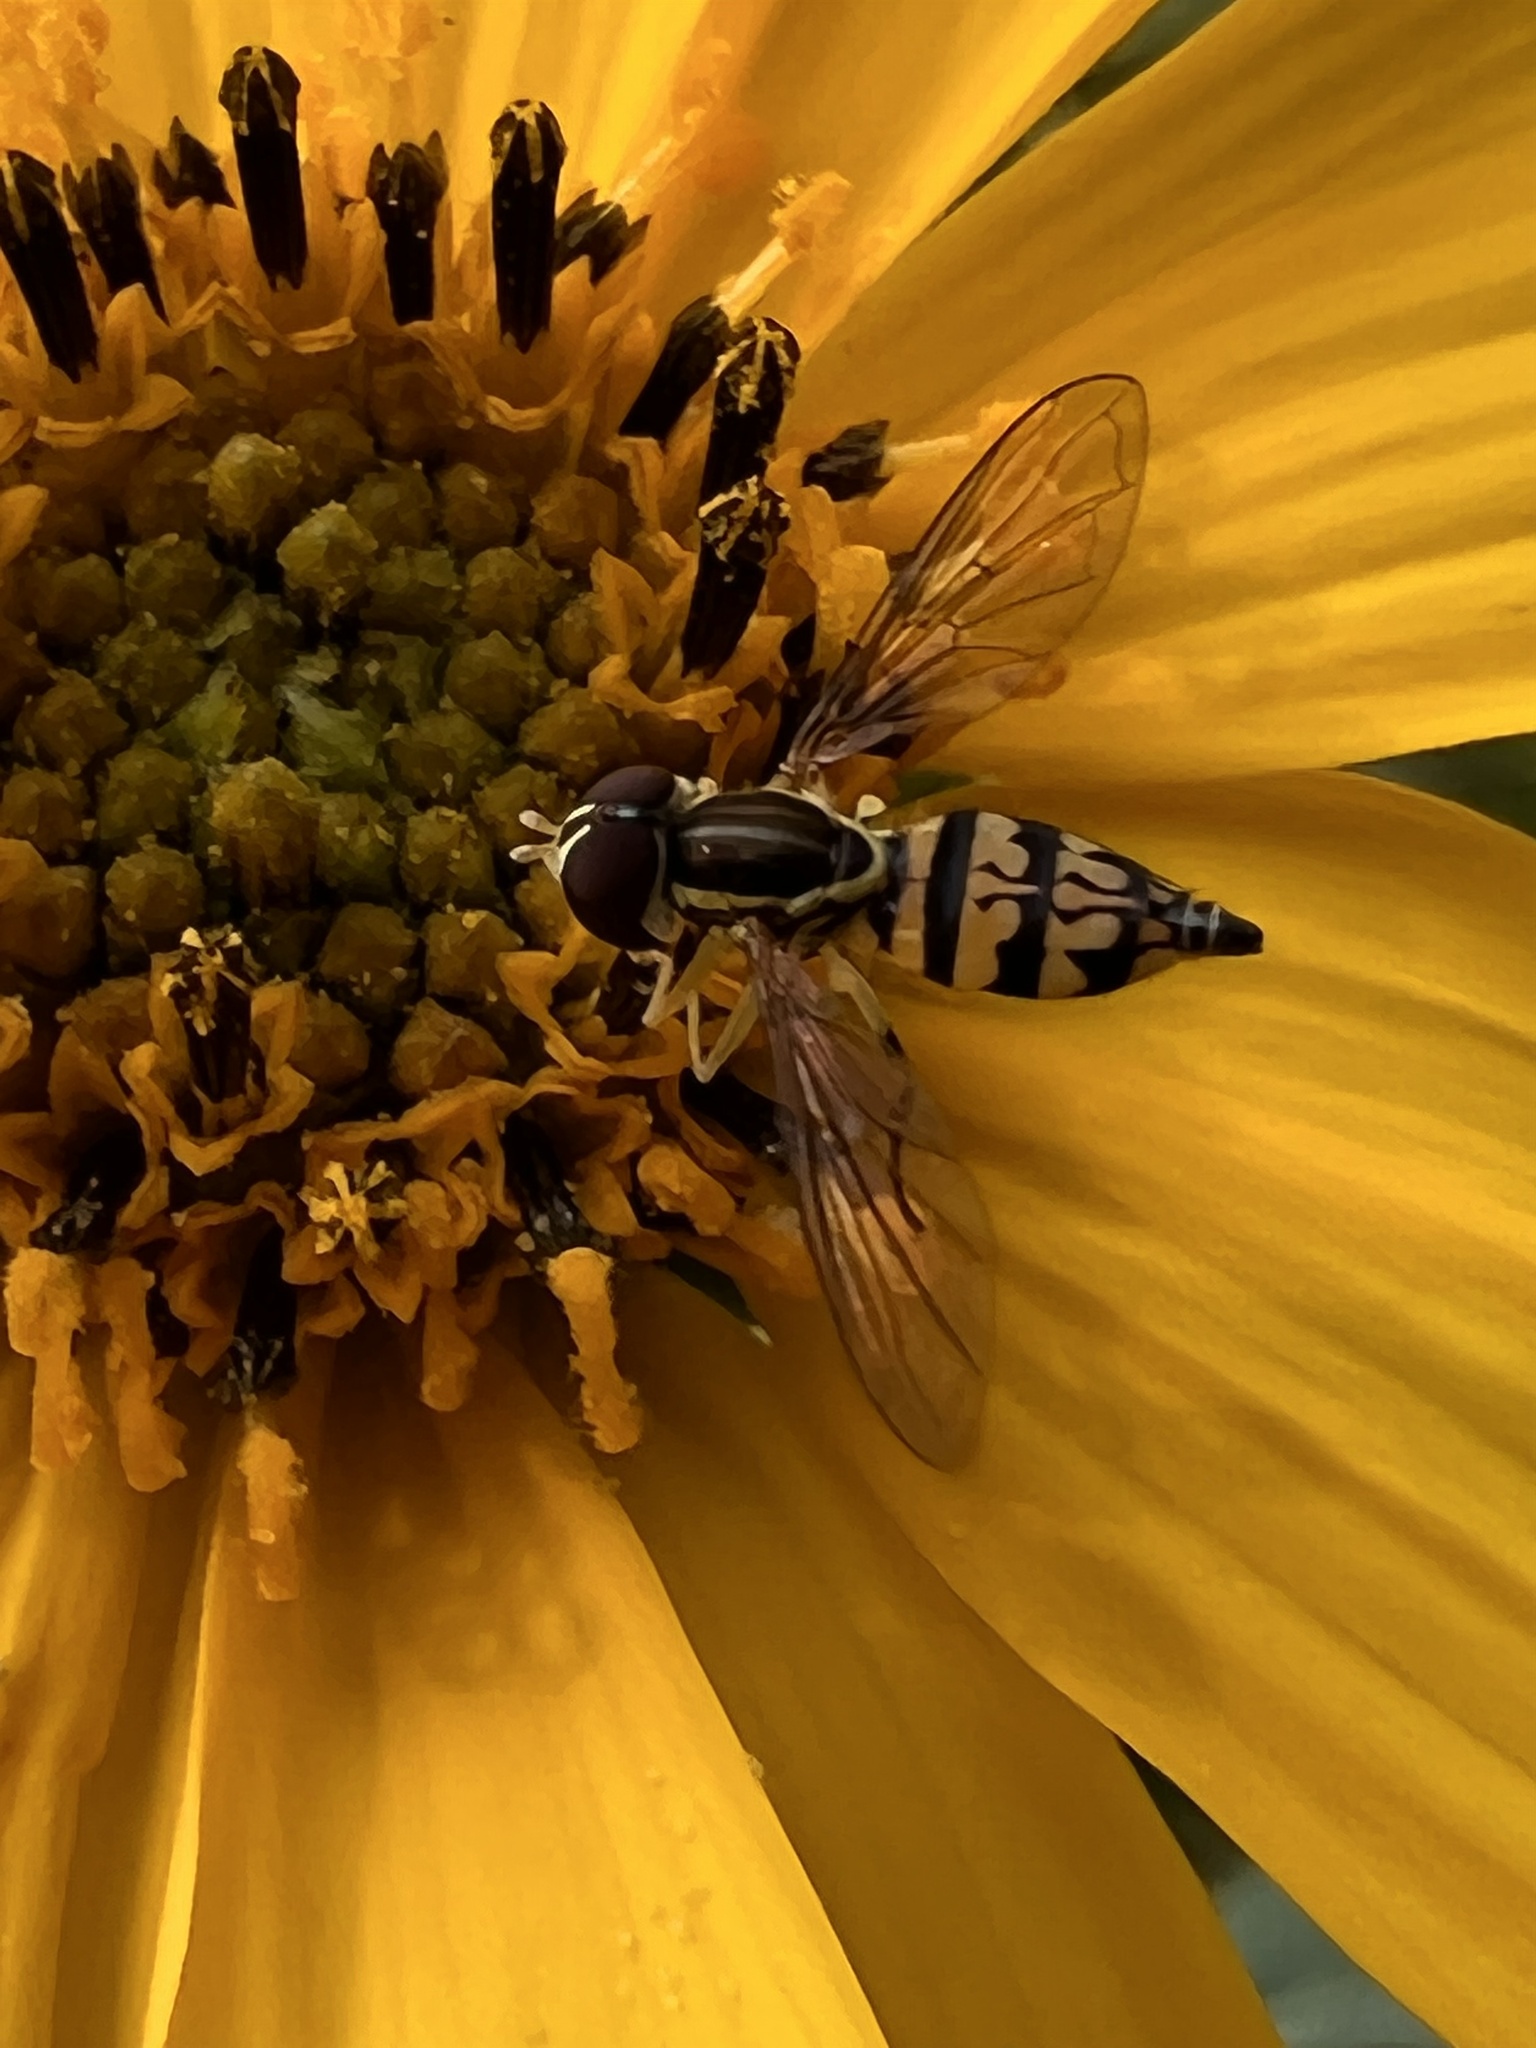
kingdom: Animalia
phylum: Arthropoda
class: Insecta
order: Diptera
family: Syrphidae
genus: Toxomerus
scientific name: Toxomerus geminatus
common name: Eastern calligrapher
